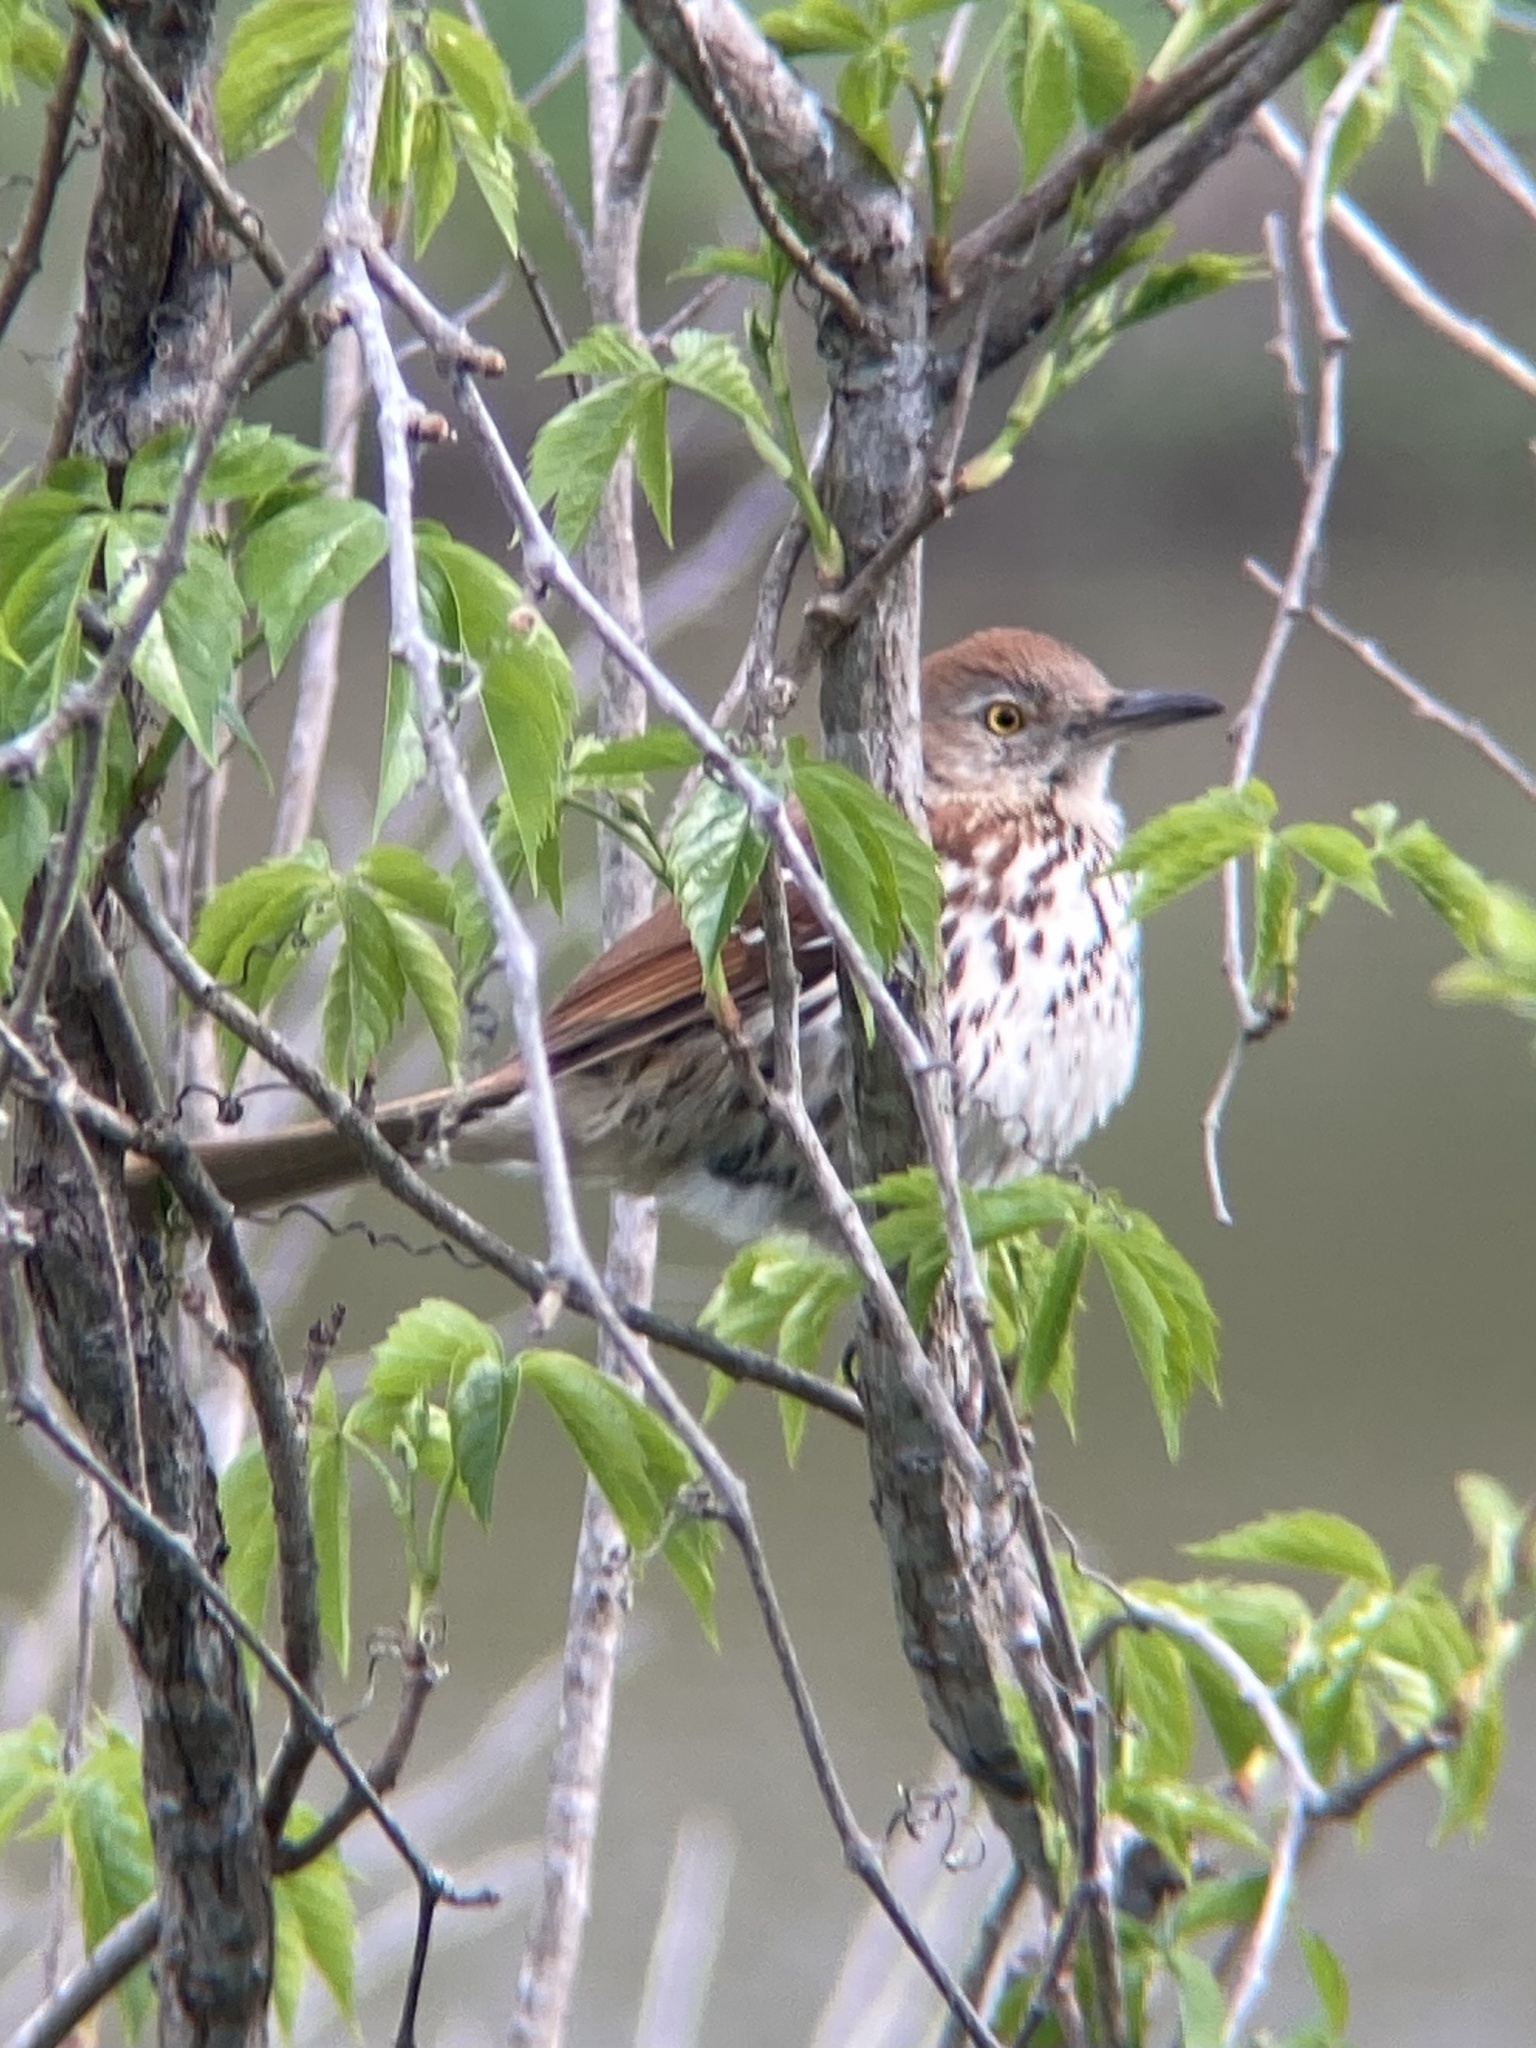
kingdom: Animalia
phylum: Chordata
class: Aves
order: Passeriformes
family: Mimidae
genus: Toxostoma
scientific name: Toxostoma rufum
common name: Brown thrasher
